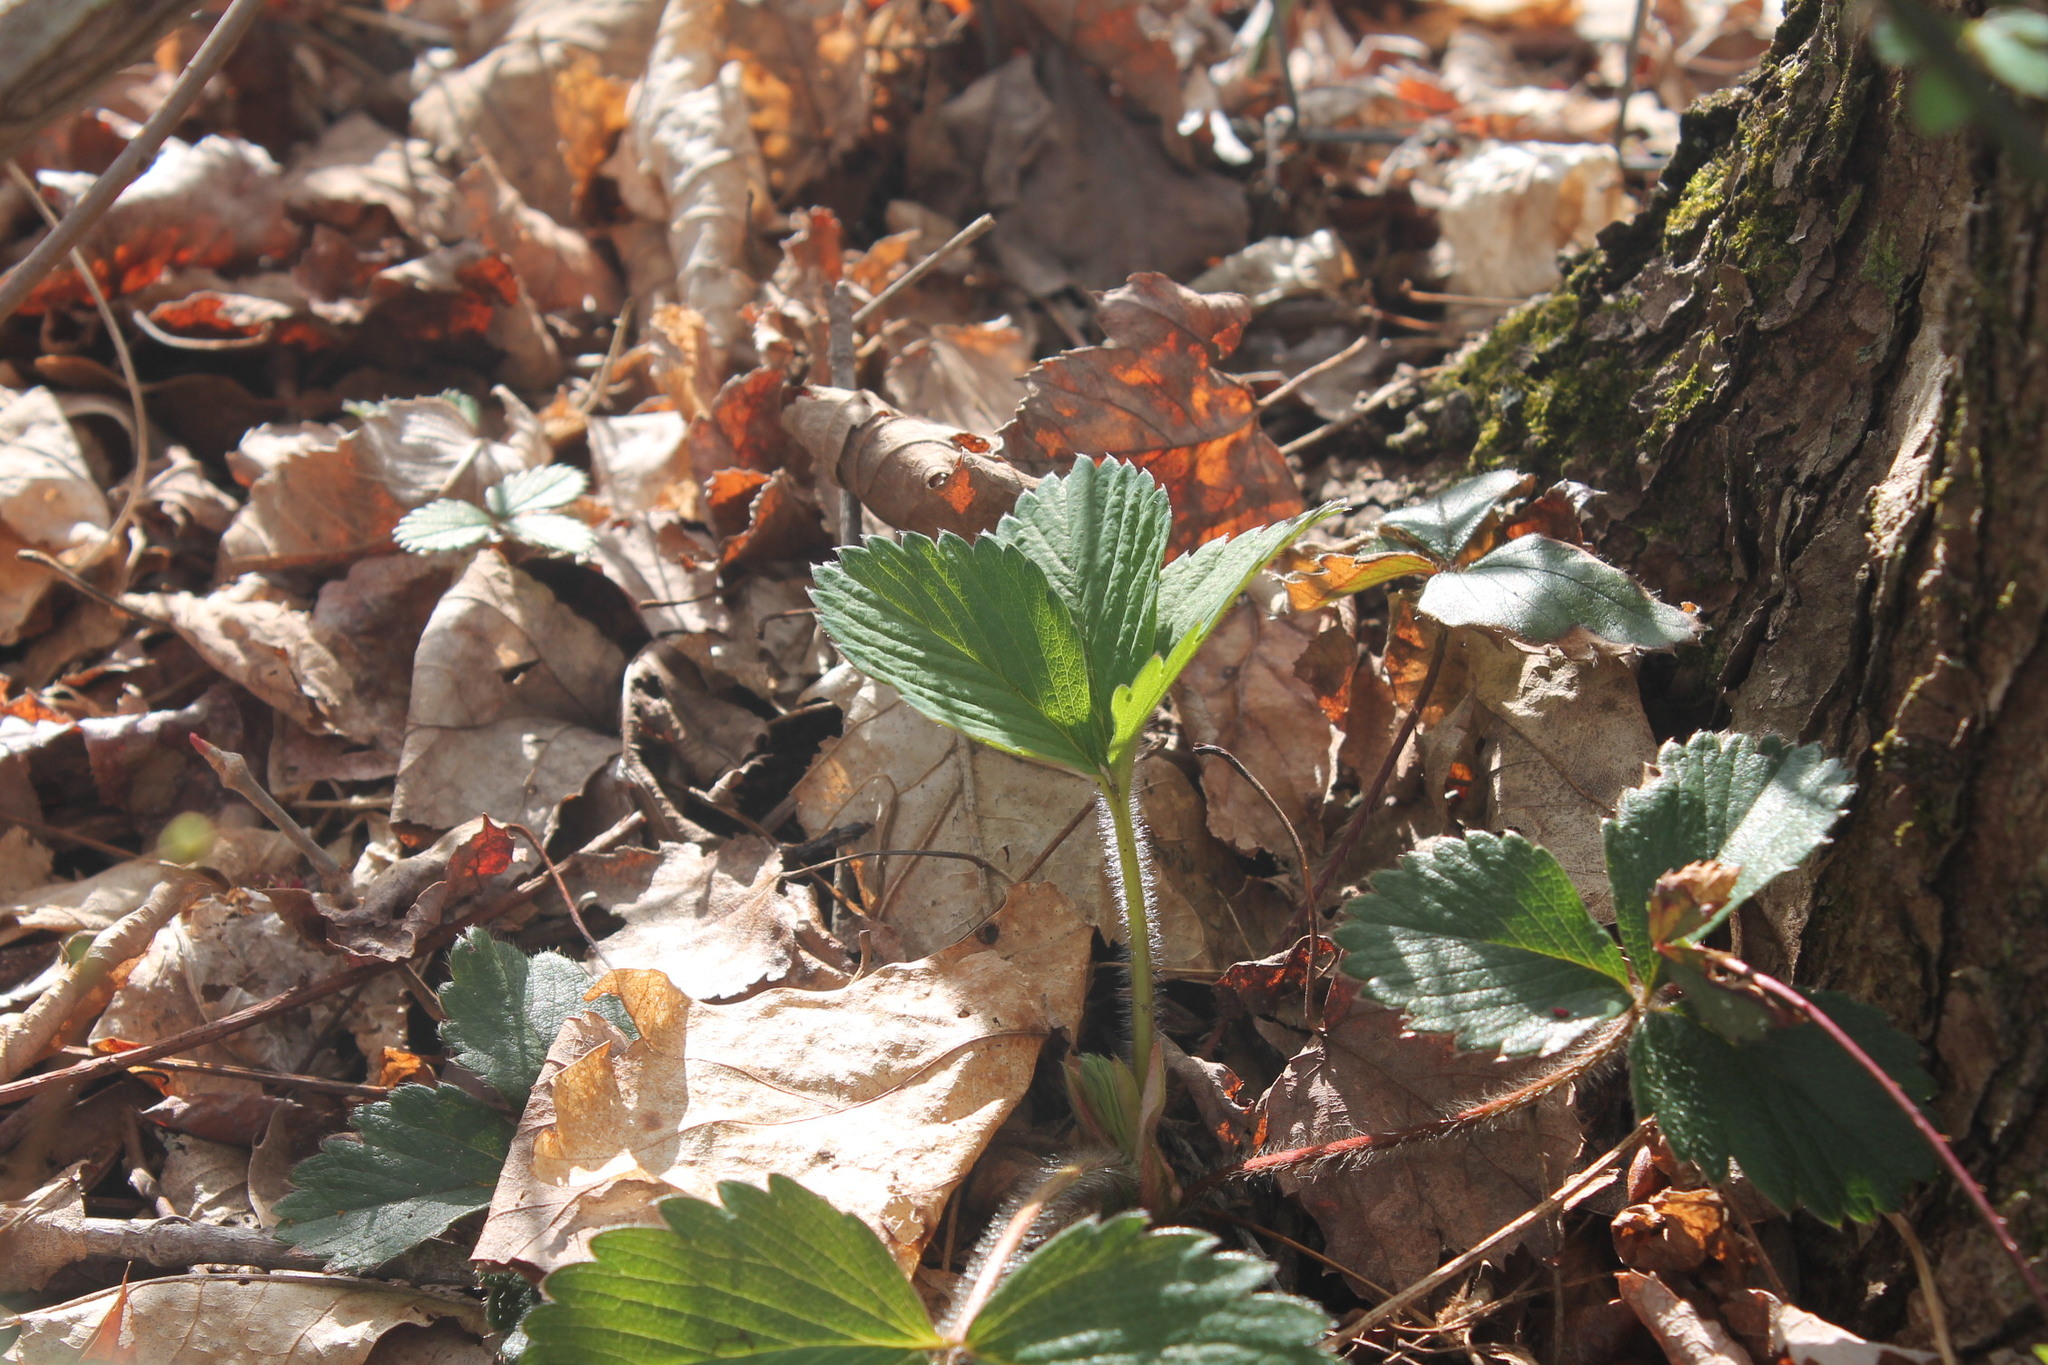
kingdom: Plantae
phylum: Tracheophyta
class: Magnoliopsida
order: Rosales
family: Rosaceae
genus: Fragaria
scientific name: Fragaria virginiana
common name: Thickleaved wild strawberry
